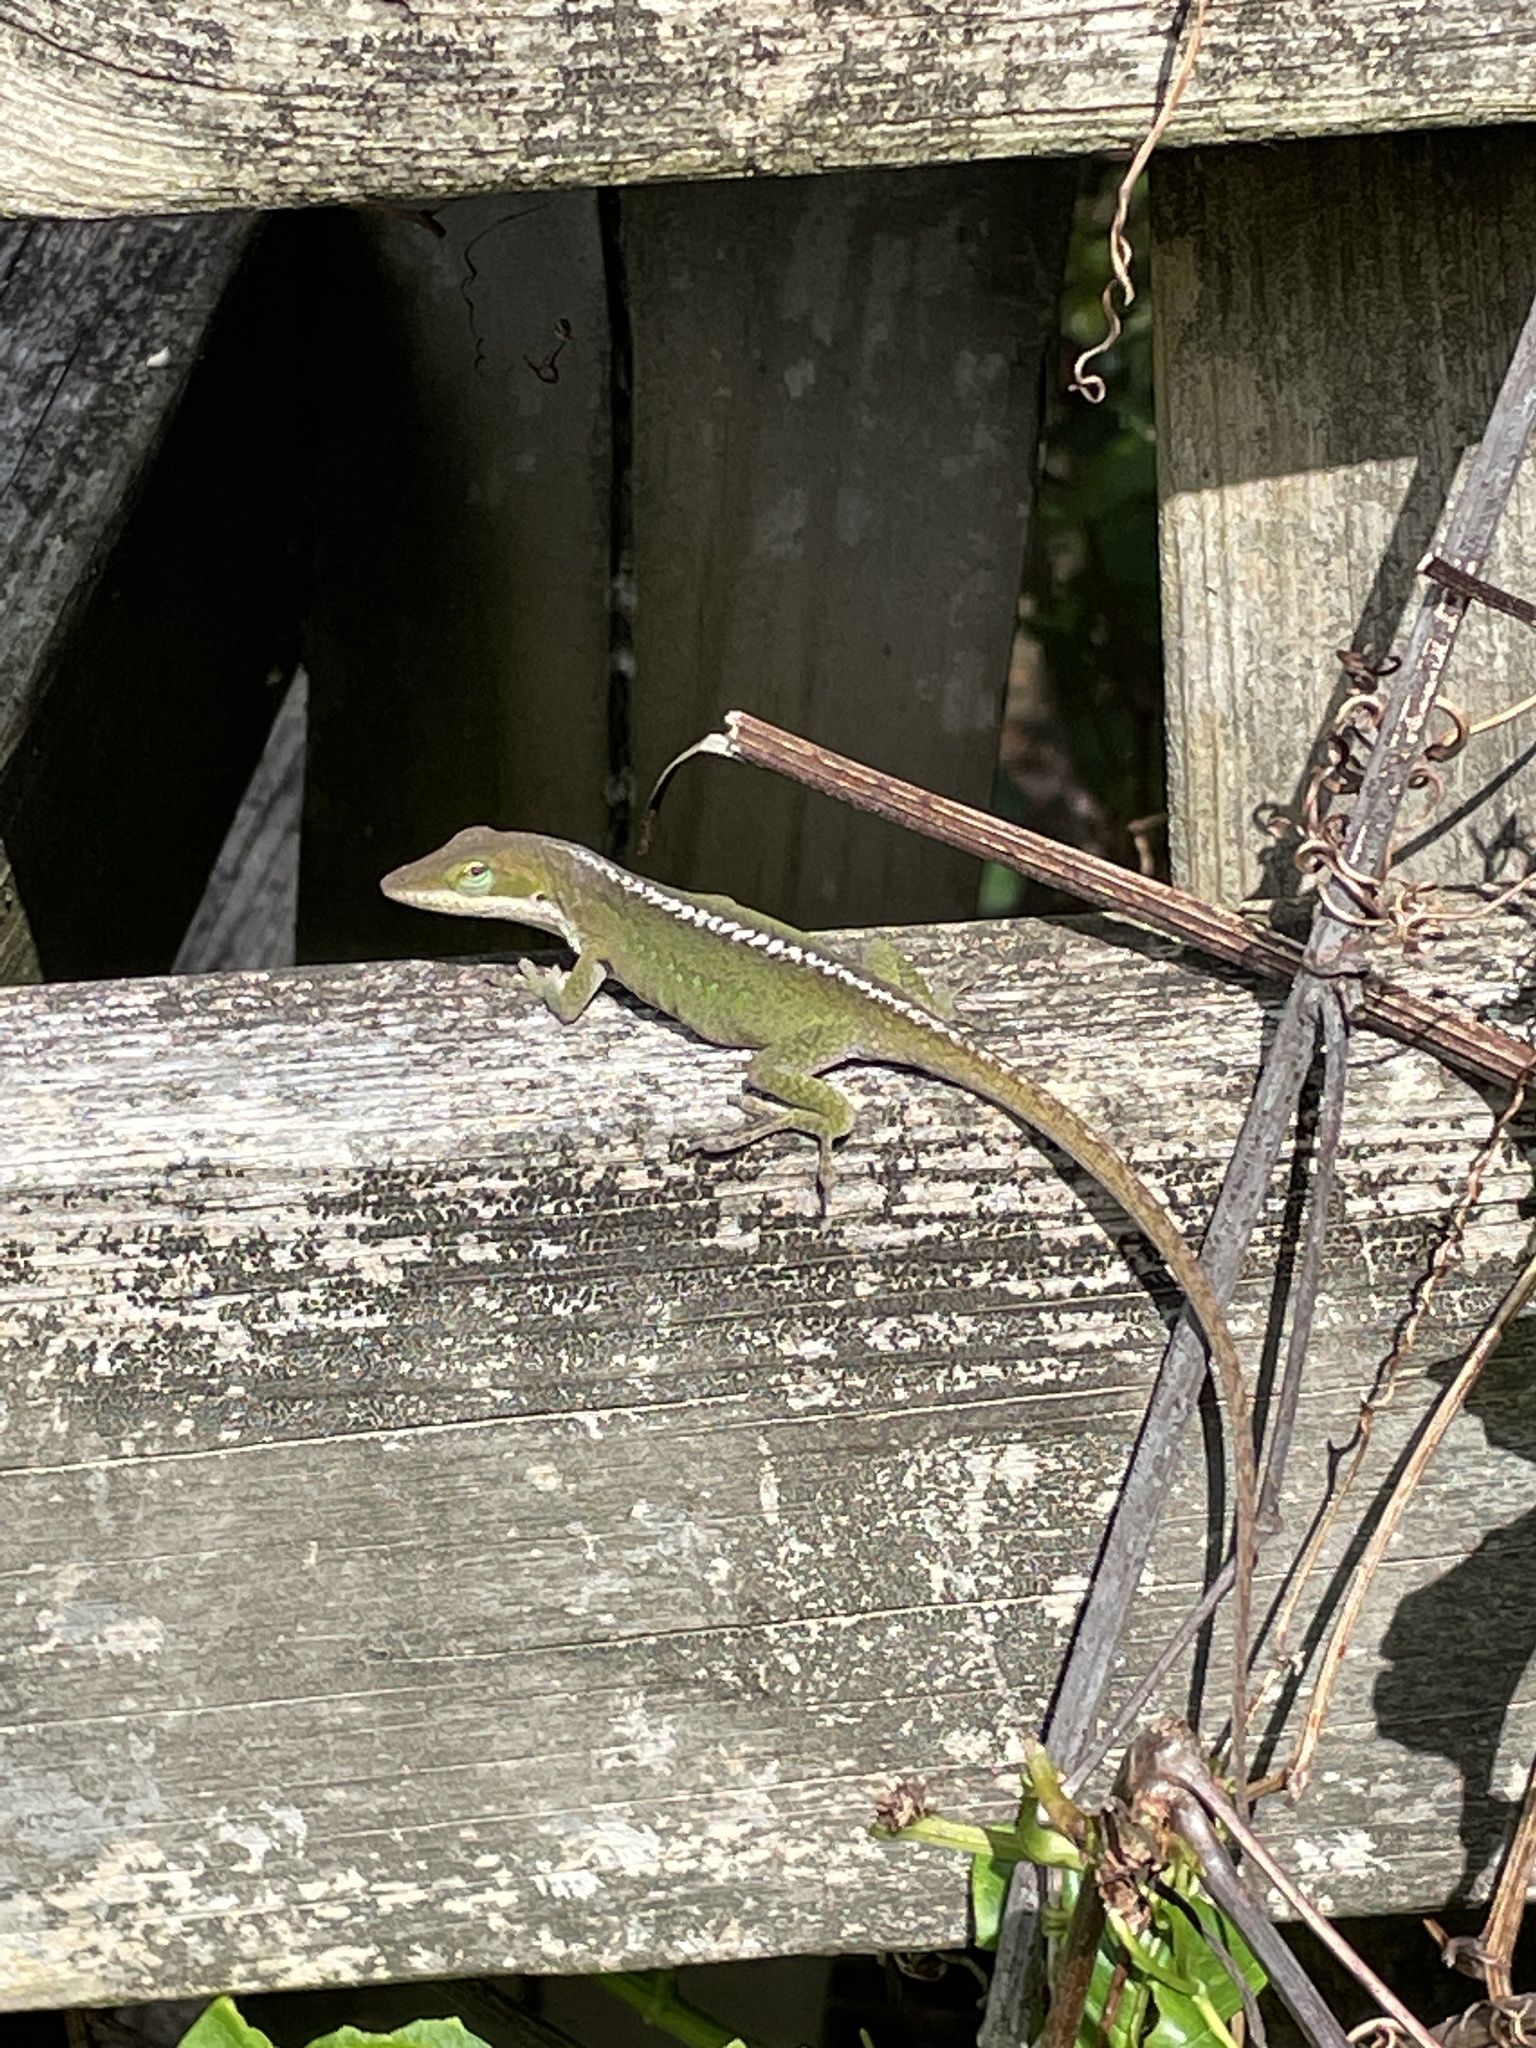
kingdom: Animalia
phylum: Chordata
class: Squamata
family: Dactyloidae
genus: Anolis
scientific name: Anolis carolinensis
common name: Green anole
